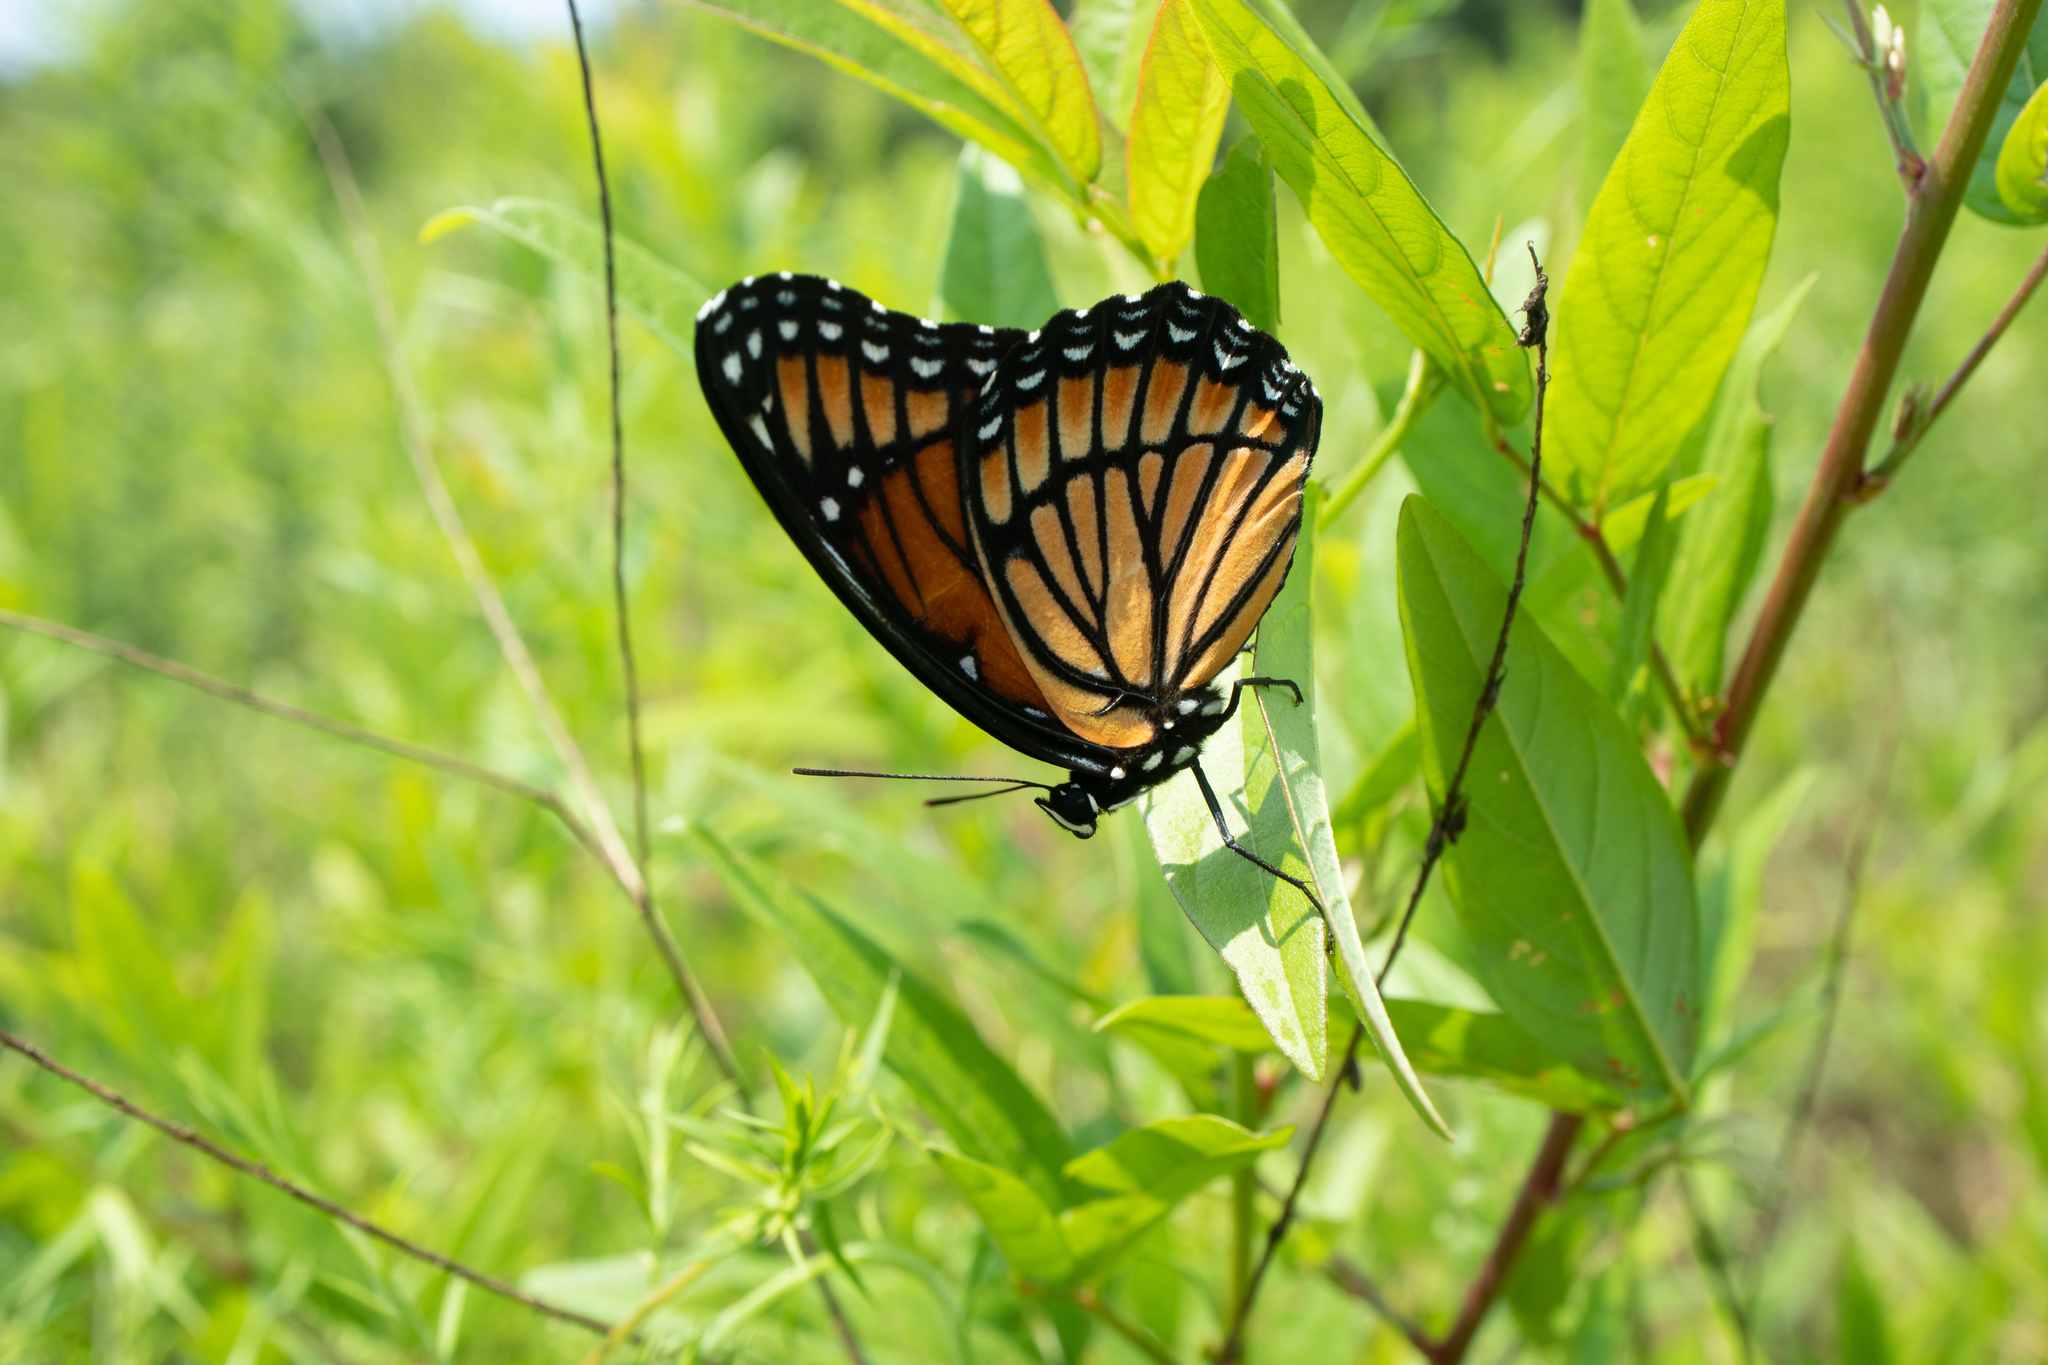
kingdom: Animalia
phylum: Arthropoda
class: Insecta
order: Lepidoptera
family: Nymphalidae
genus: Limenitis
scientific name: Limenitis archippus
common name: Viceroy
